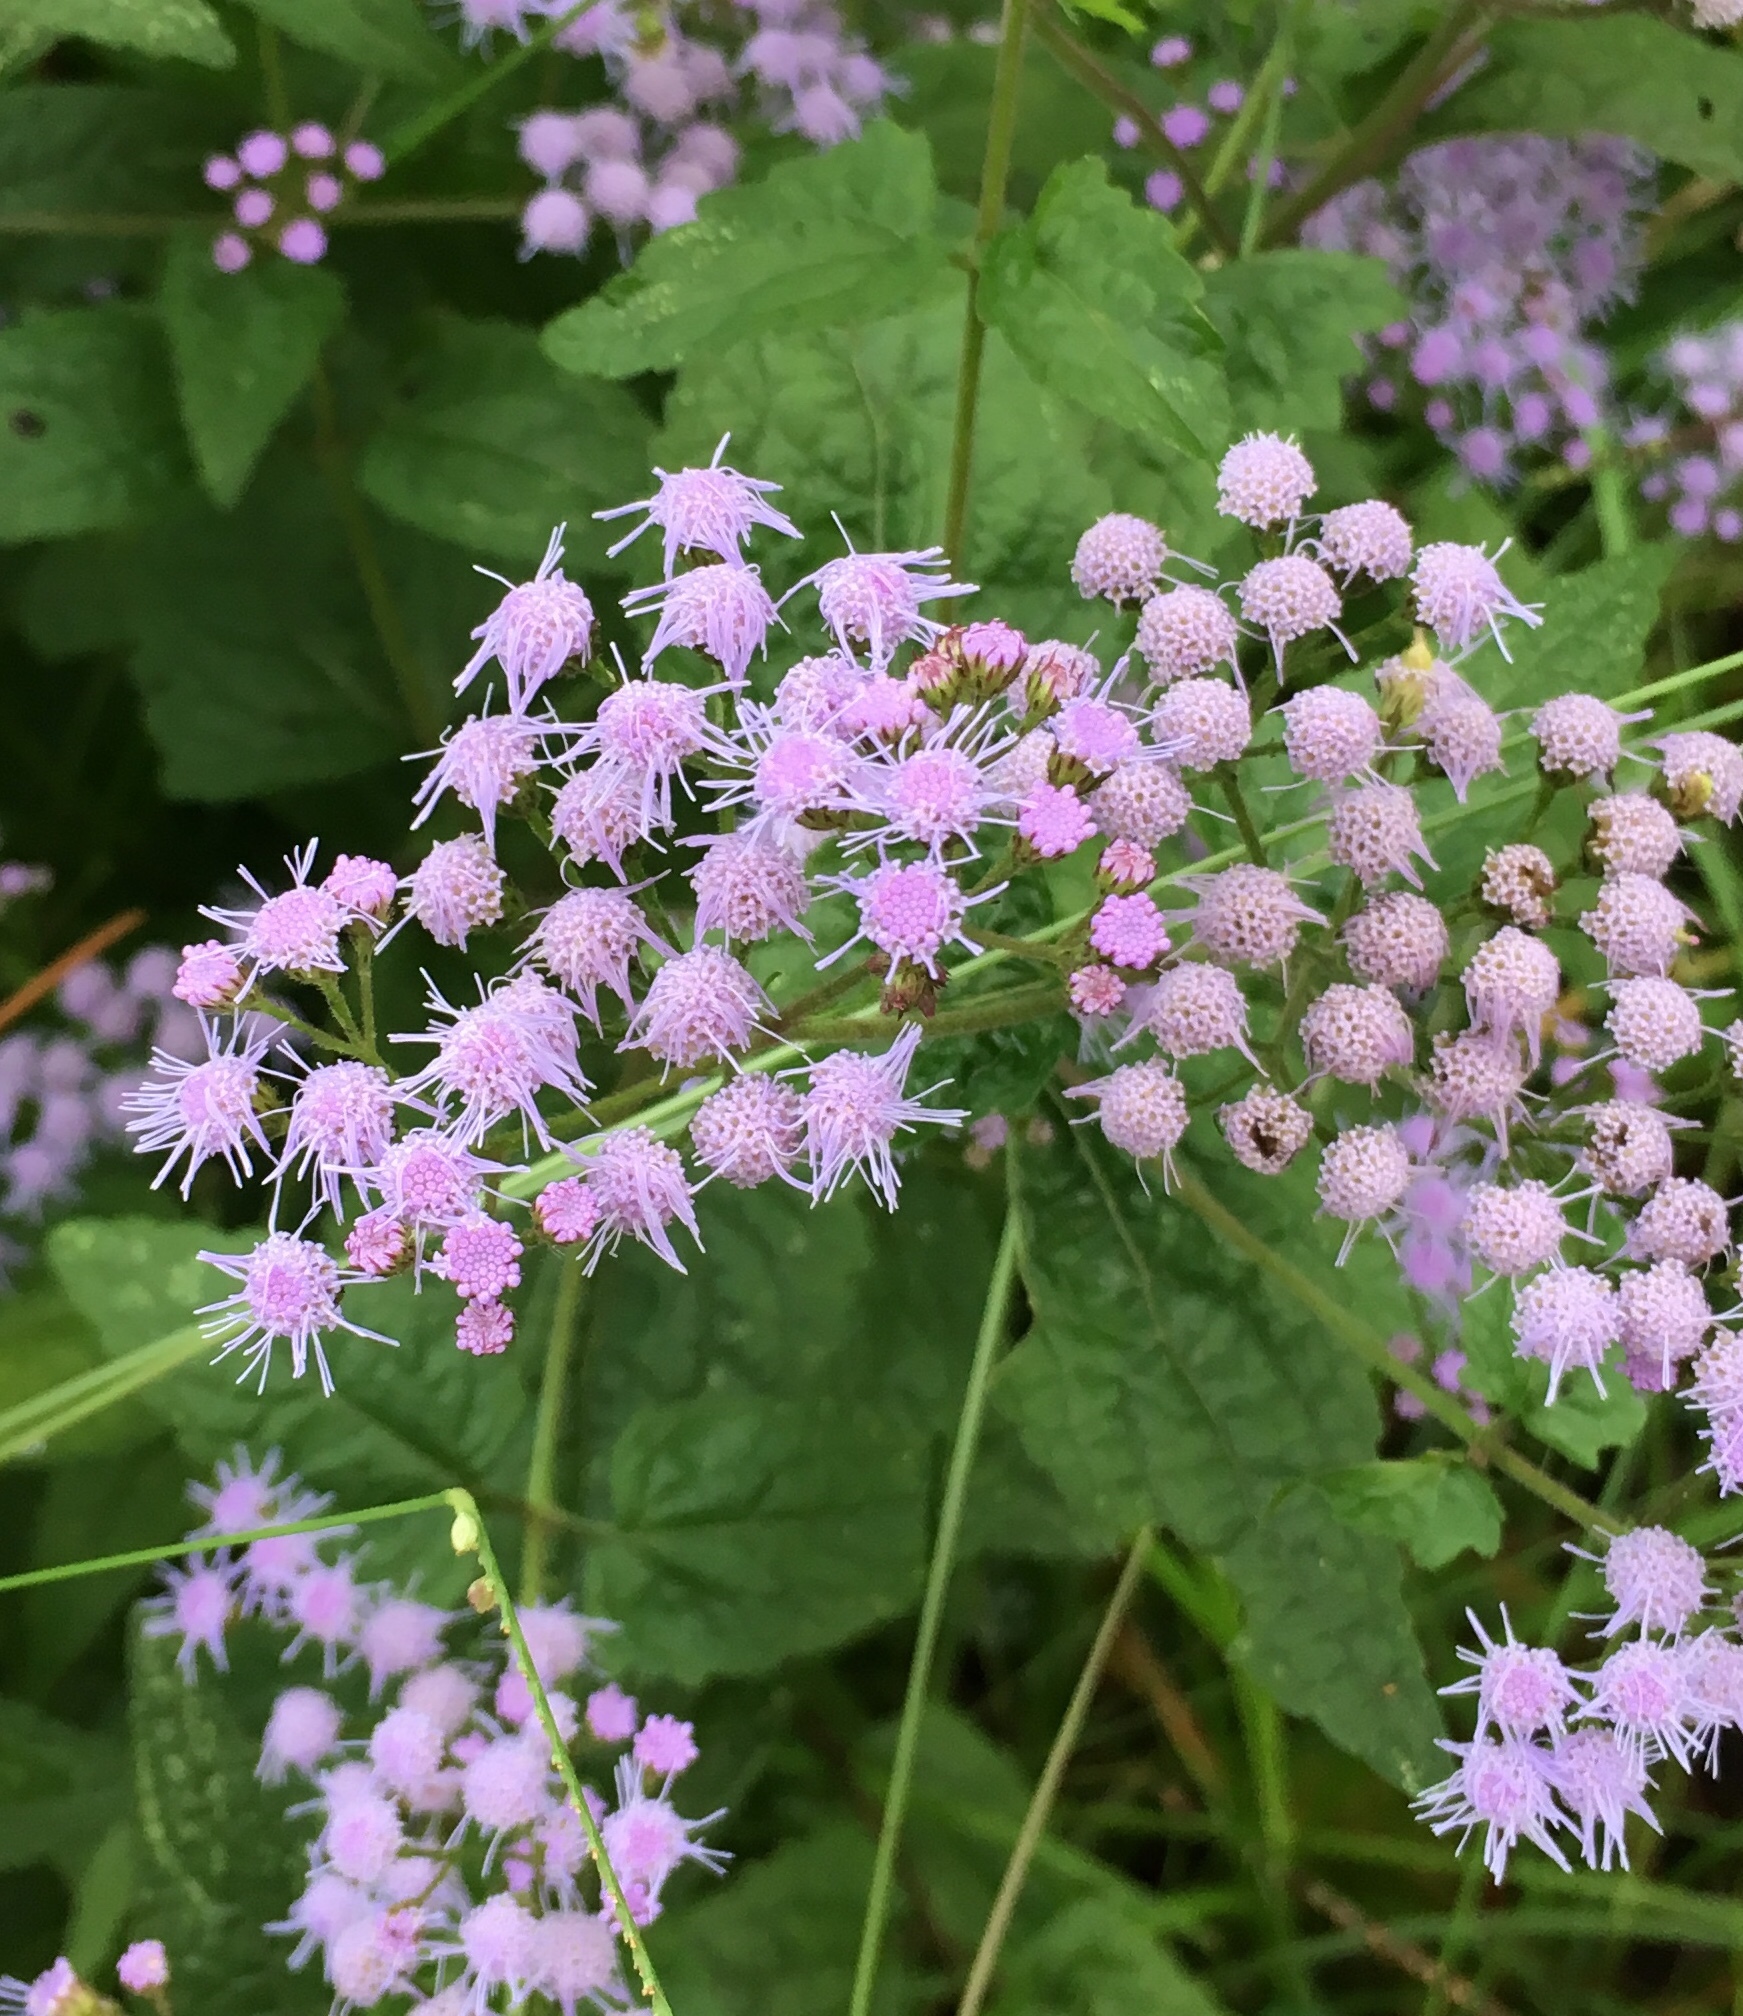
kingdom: Plantae
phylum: Tracheophyta
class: Magnoliopsida
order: Asterales
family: Asteraceae
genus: Conoclinium
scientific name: Conoclinium coelestinum
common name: Blue mistflower
